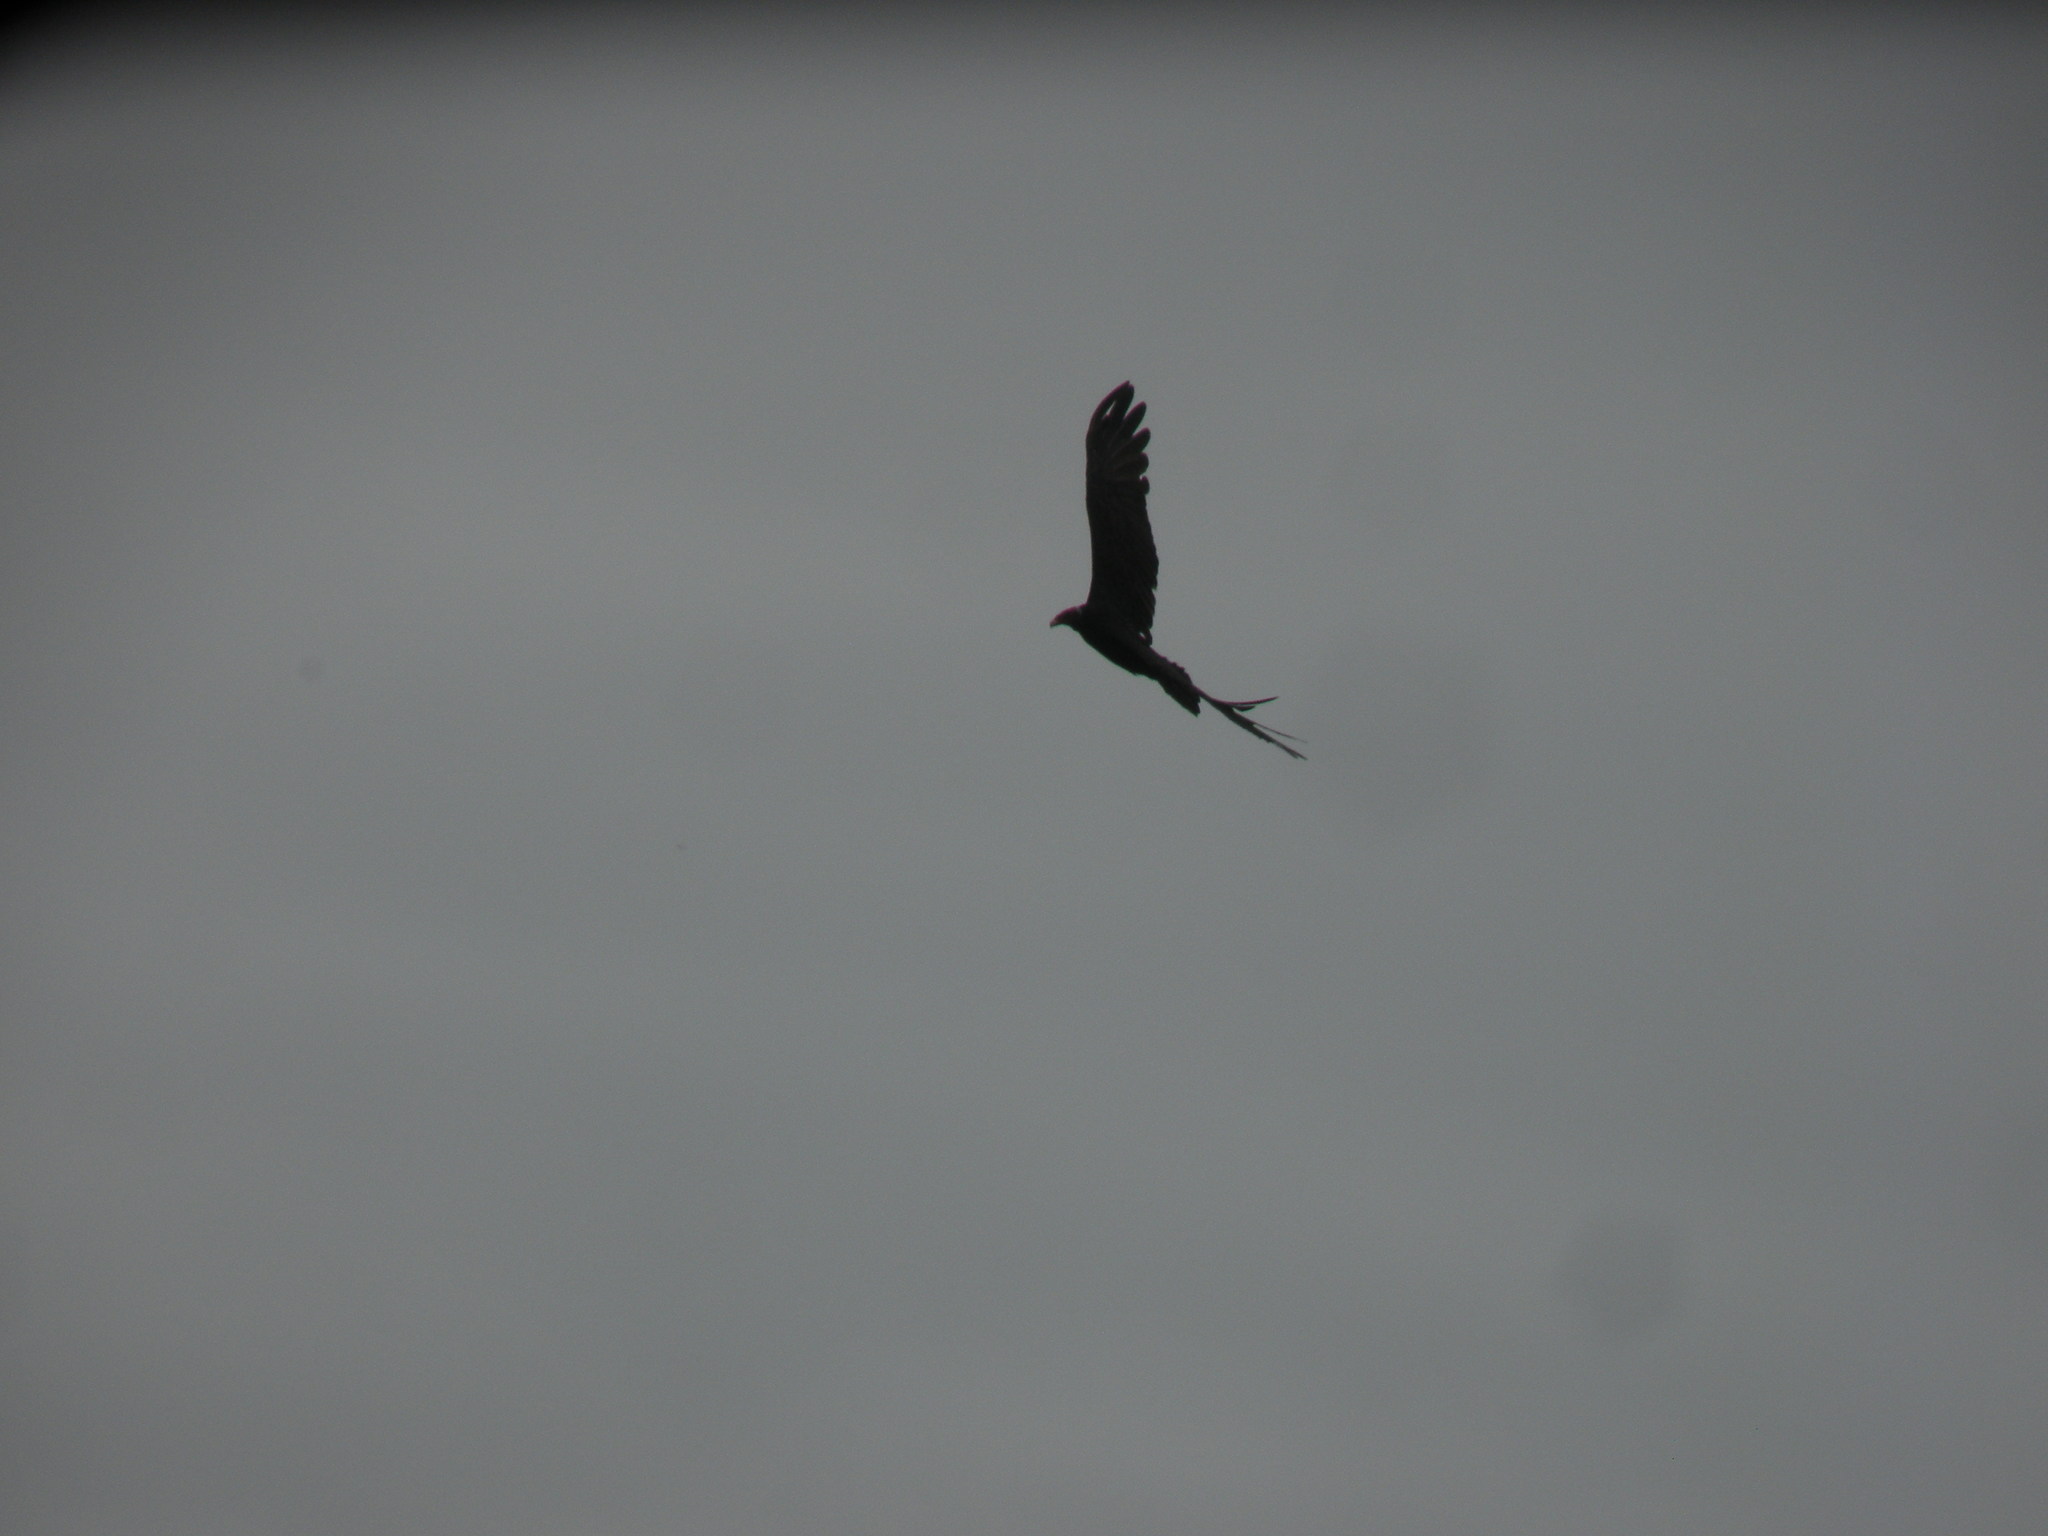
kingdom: Animalia
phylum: Chordata
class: Aves
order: Accipitriformes
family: Cathartidae
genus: Cathartes
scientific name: Cathartes aura
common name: Turkey vulture
